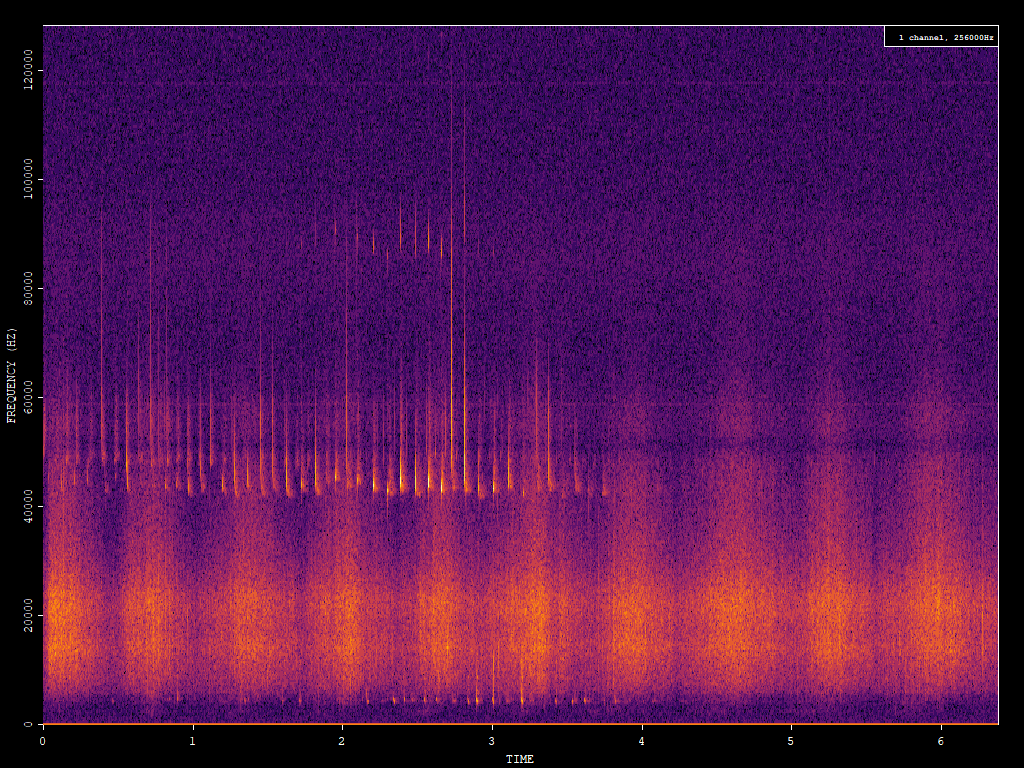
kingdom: Animalia
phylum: Chordata
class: Mammalia
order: Chiroptera
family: Vespertilionidae
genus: Pipistrellus
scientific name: Pipistrellus pipistrellus
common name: Common pipistrelle
